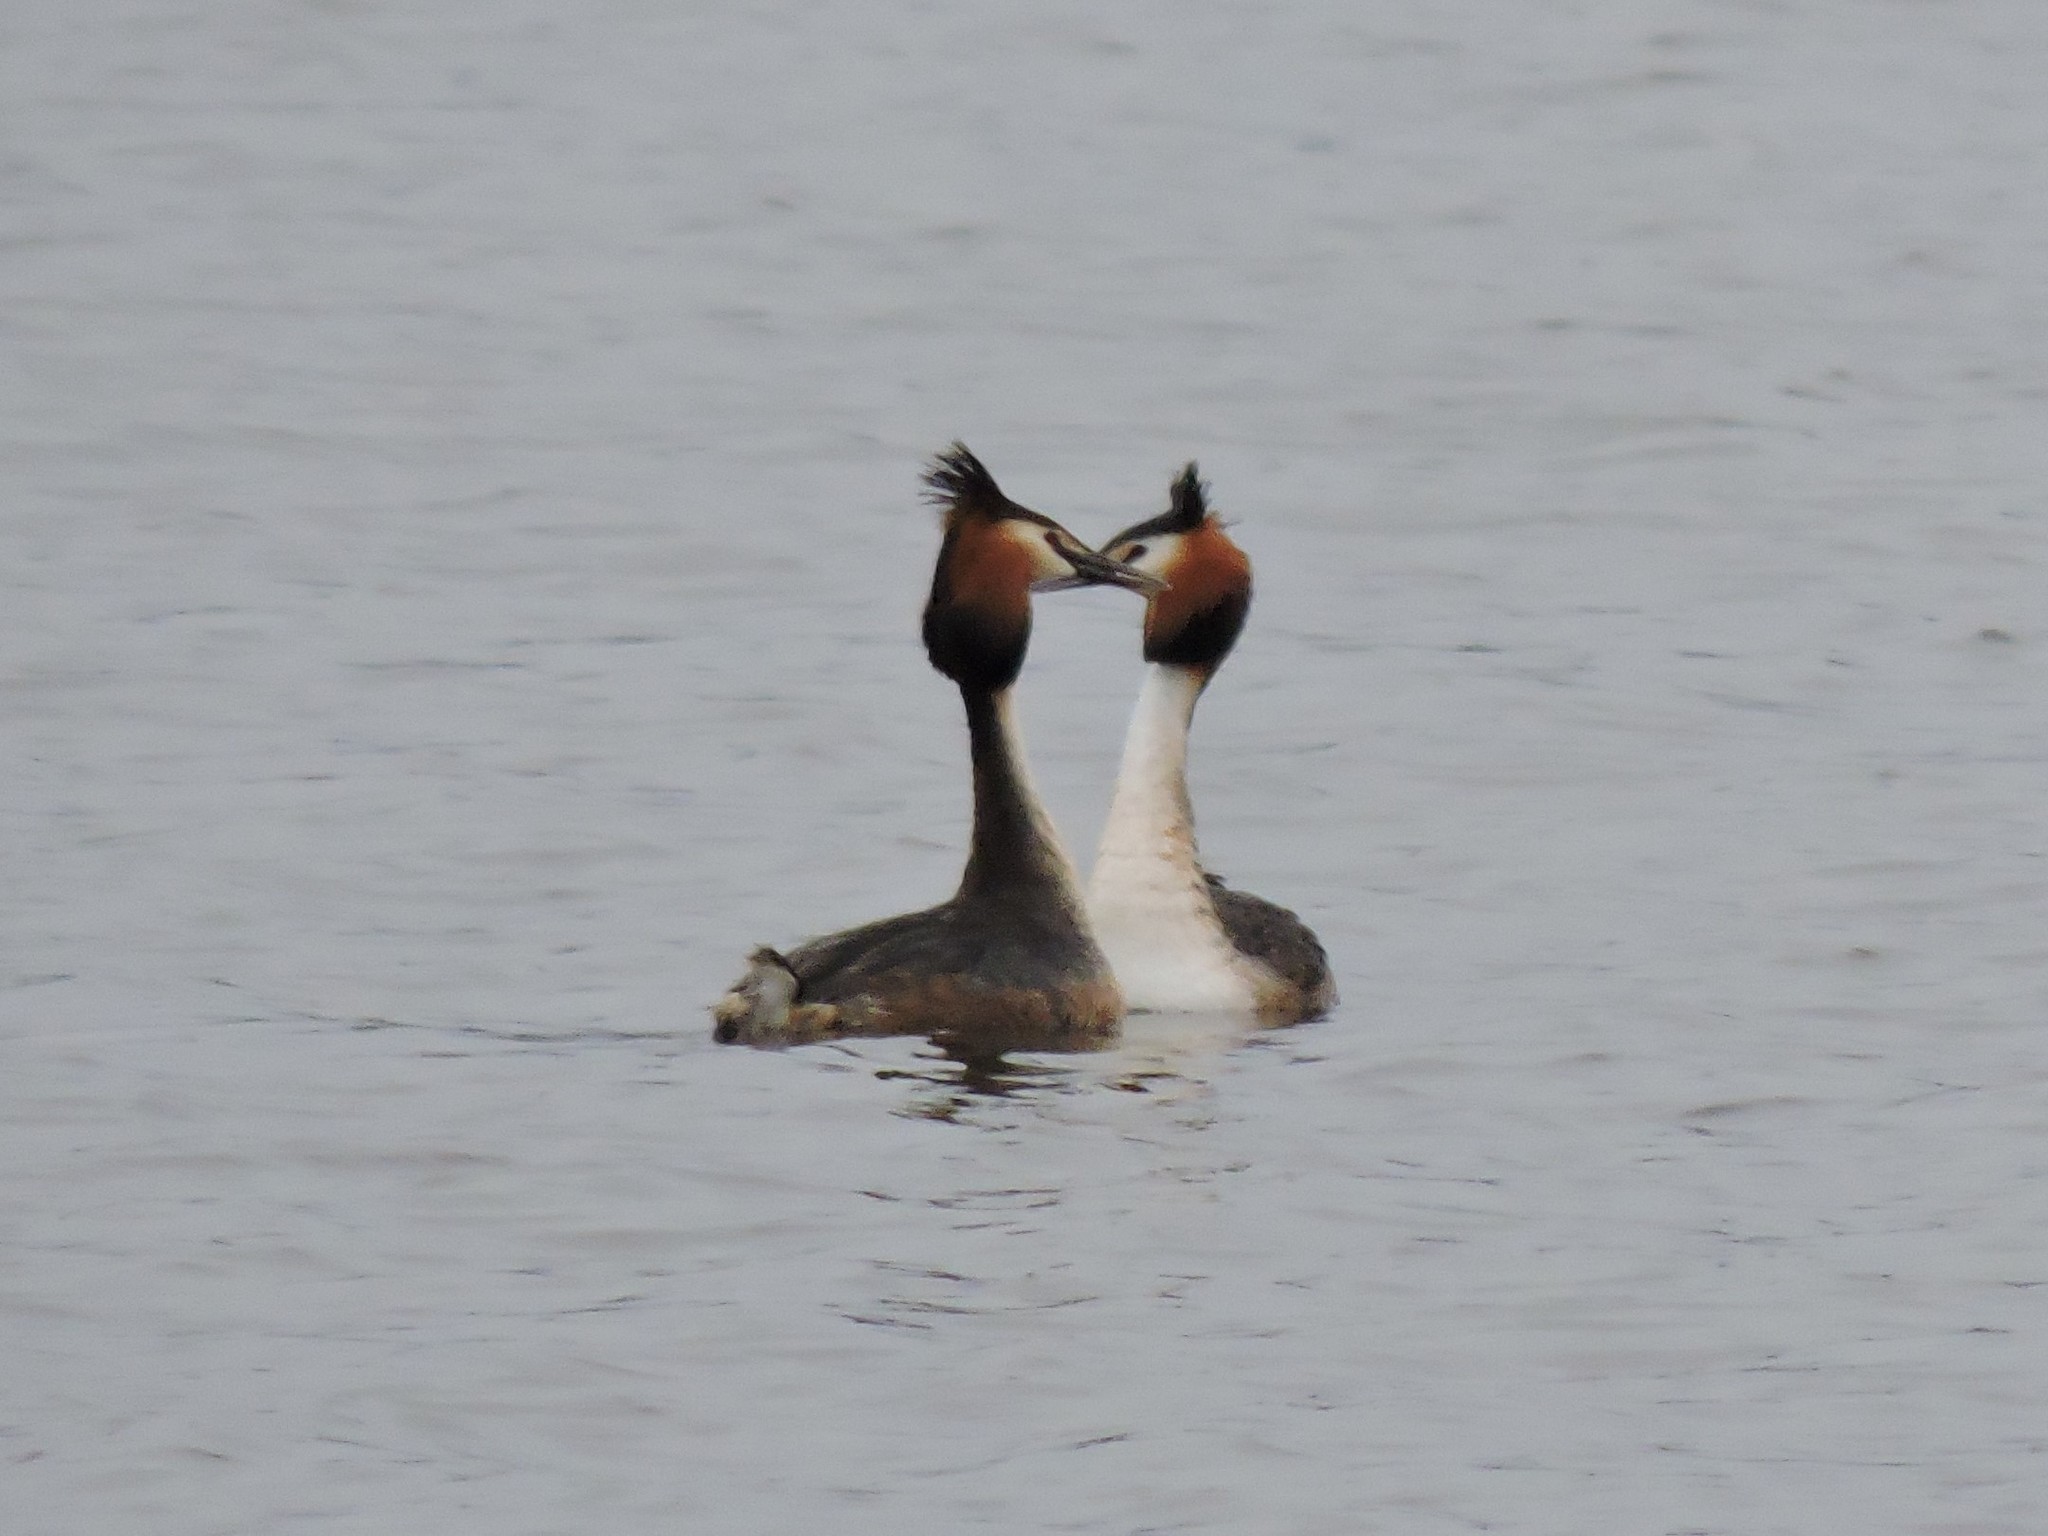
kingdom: Animalia
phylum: Chordata
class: Aves
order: Podicipediformes
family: Podicipedidae
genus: Podiceps
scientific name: Podiceps cristatus
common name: Great crested grebe
